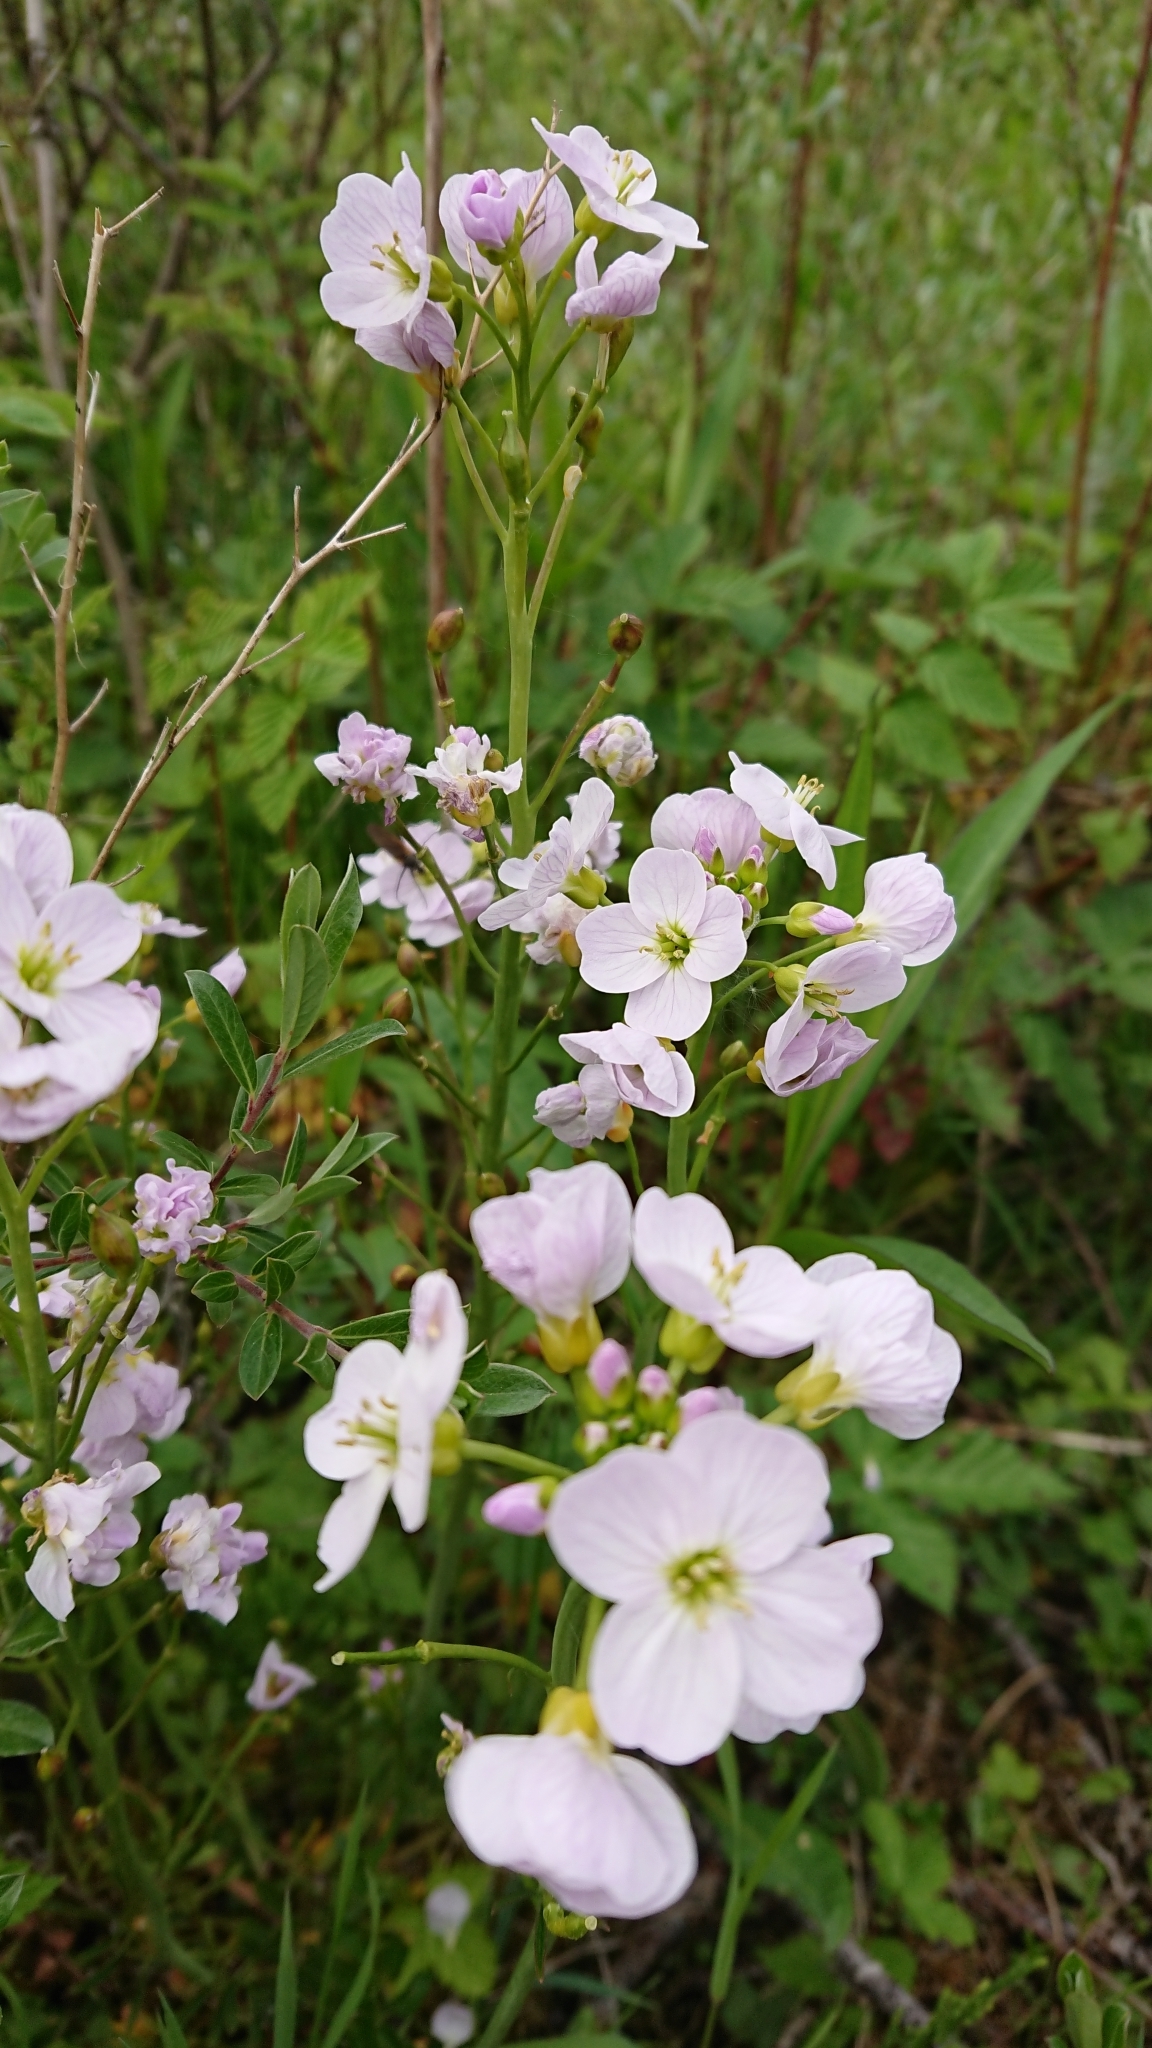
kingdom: Plantae
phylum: Tracheophyta
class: Magnoliopsida
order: Brassicales
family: Brassicaceae
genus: Cardamine
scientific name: Cardamine pratensis
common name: Cuckoo flower
